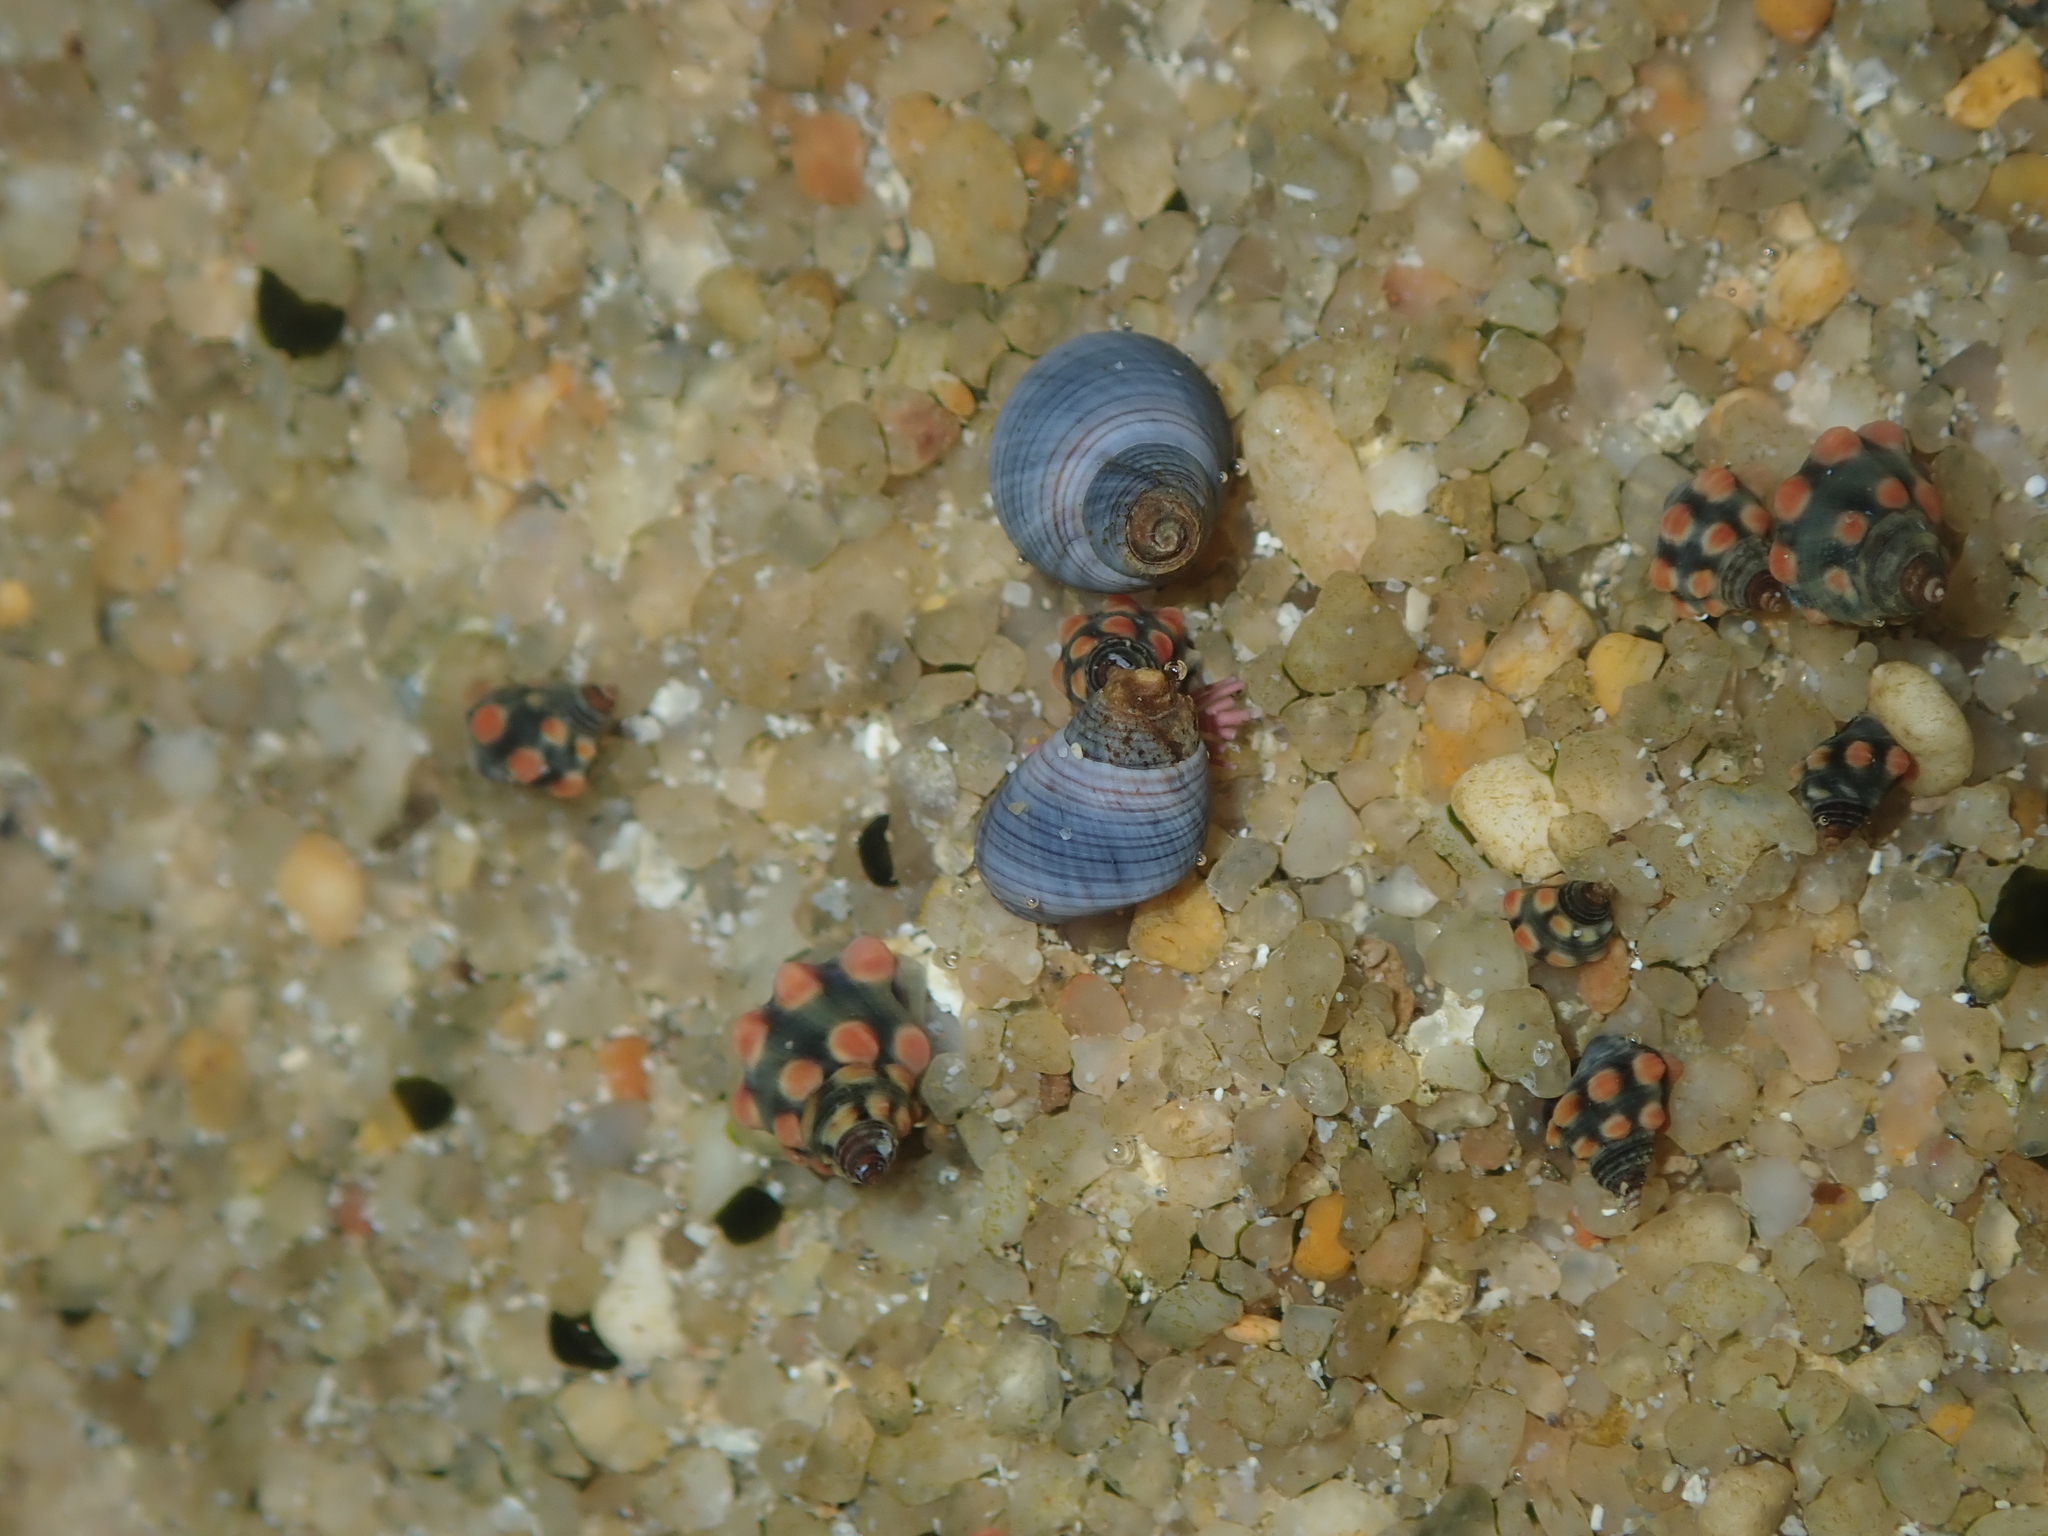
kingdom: Animalia
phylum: Mollusca
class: Gastropoda
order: Littorinimorpha
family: Littorinidae
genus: Austrolittorina
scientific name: Austrolittorina unifasciata
